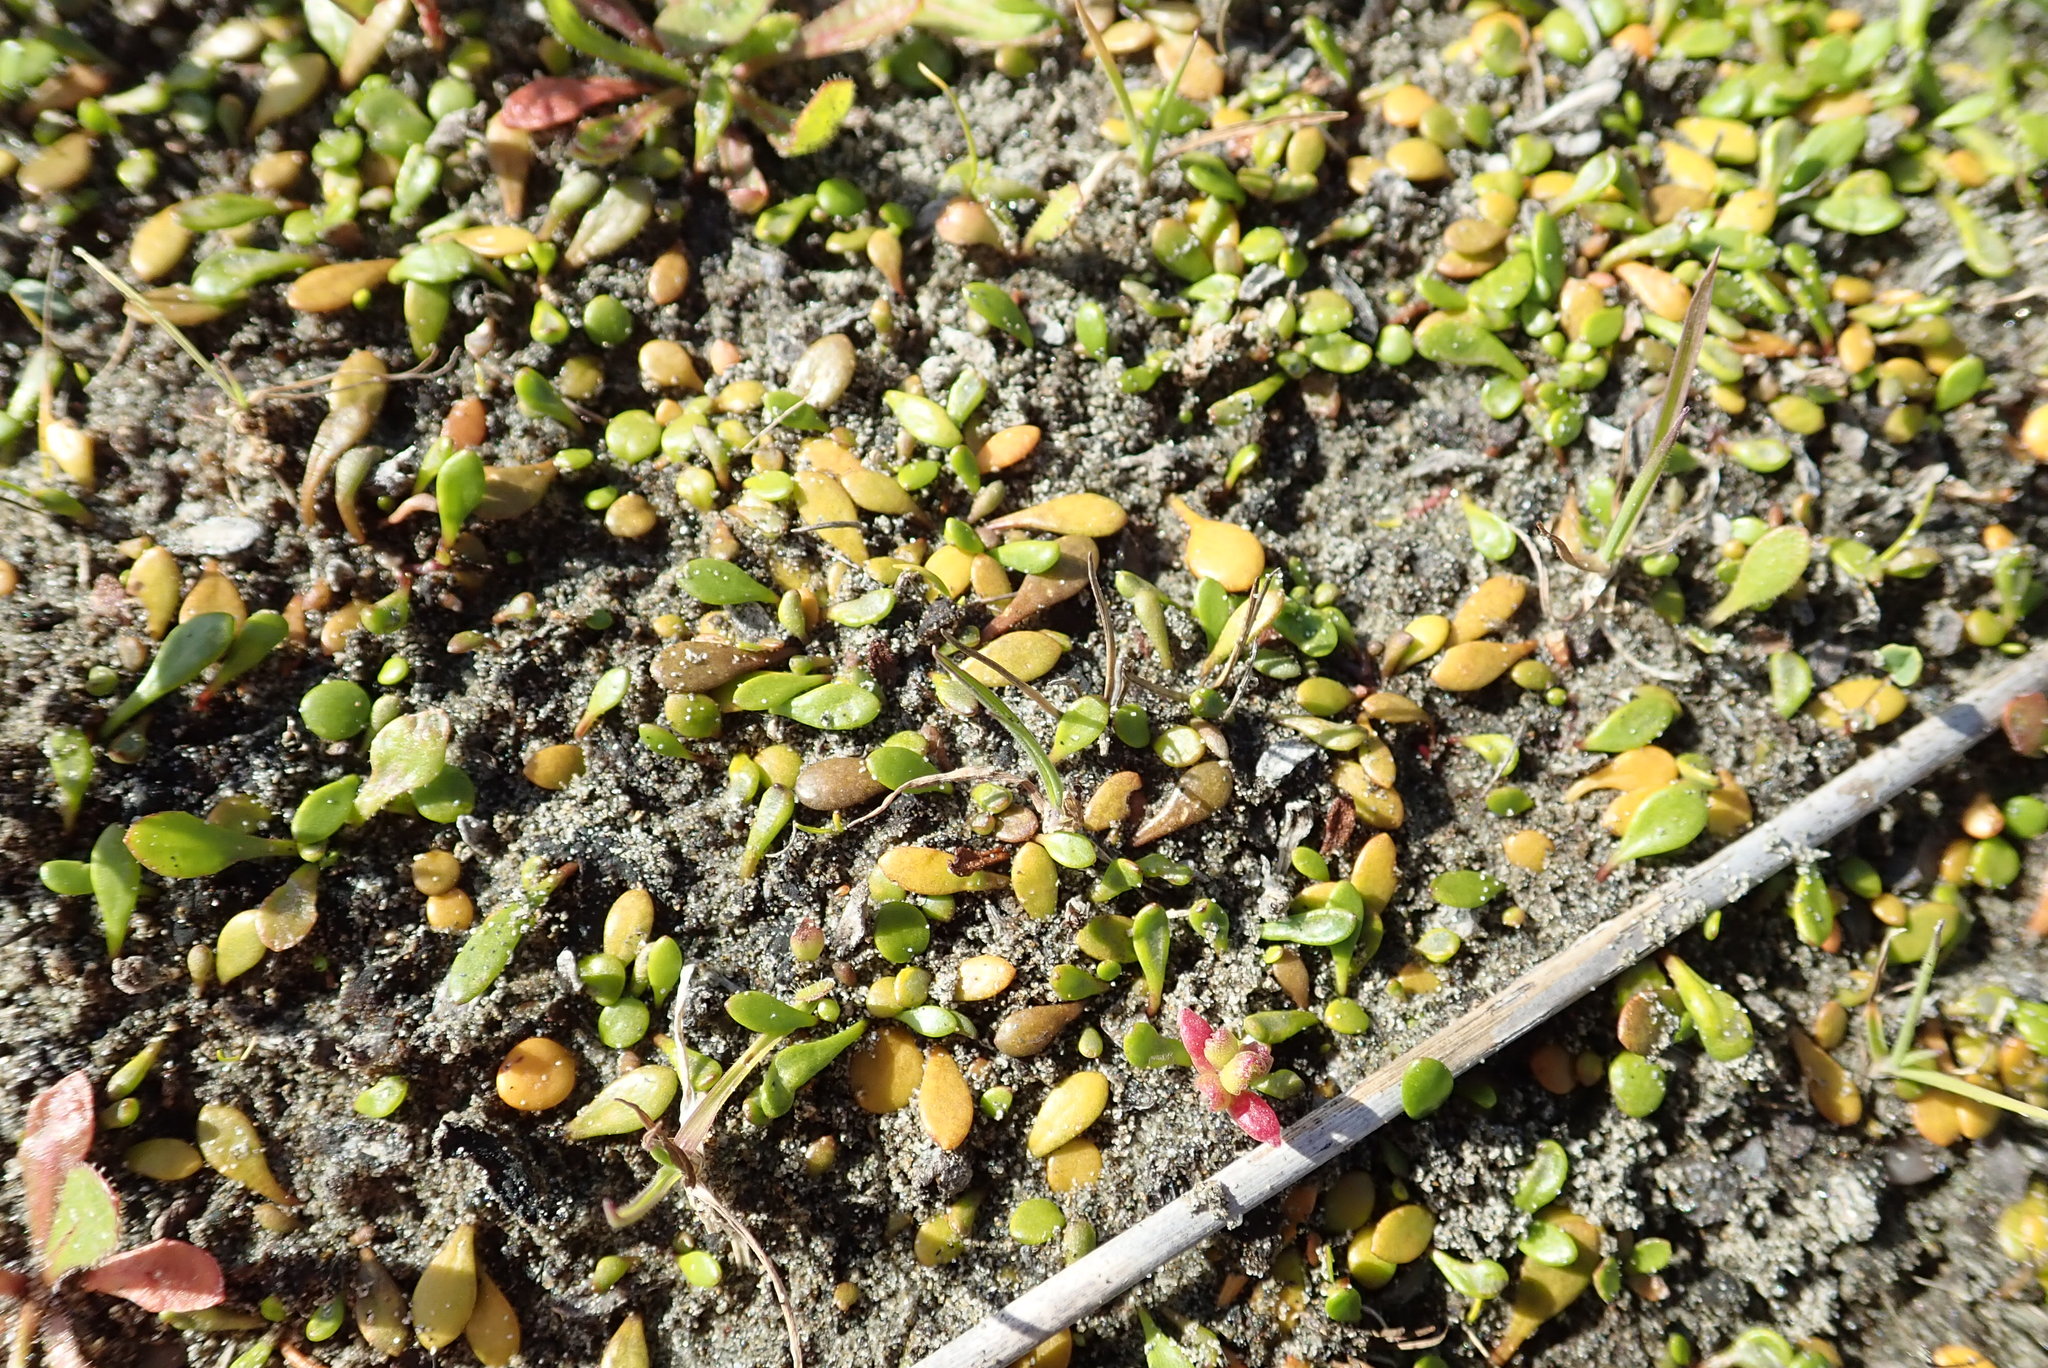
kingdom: Plantae
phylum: Tracheophyta
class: Magnoliopsida
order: Asterales
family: Goodeniaceae
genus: Goodenia
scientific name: Goodenia radicans
